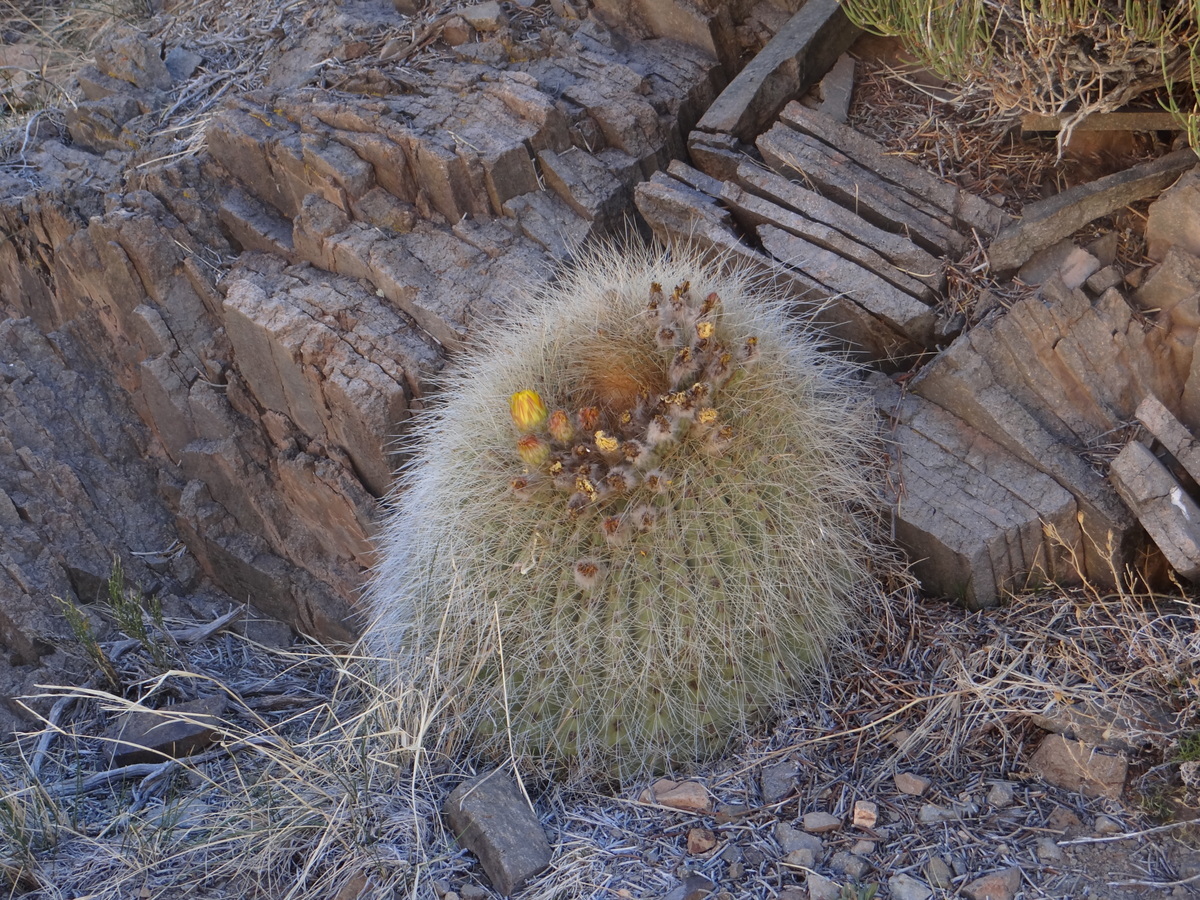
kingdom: Plantae
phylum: Tracheophyta
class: Magnoliopsida
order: Caryophyllales
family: Cactaceae
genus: Soehrensia
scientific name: Soehrensia formosa
